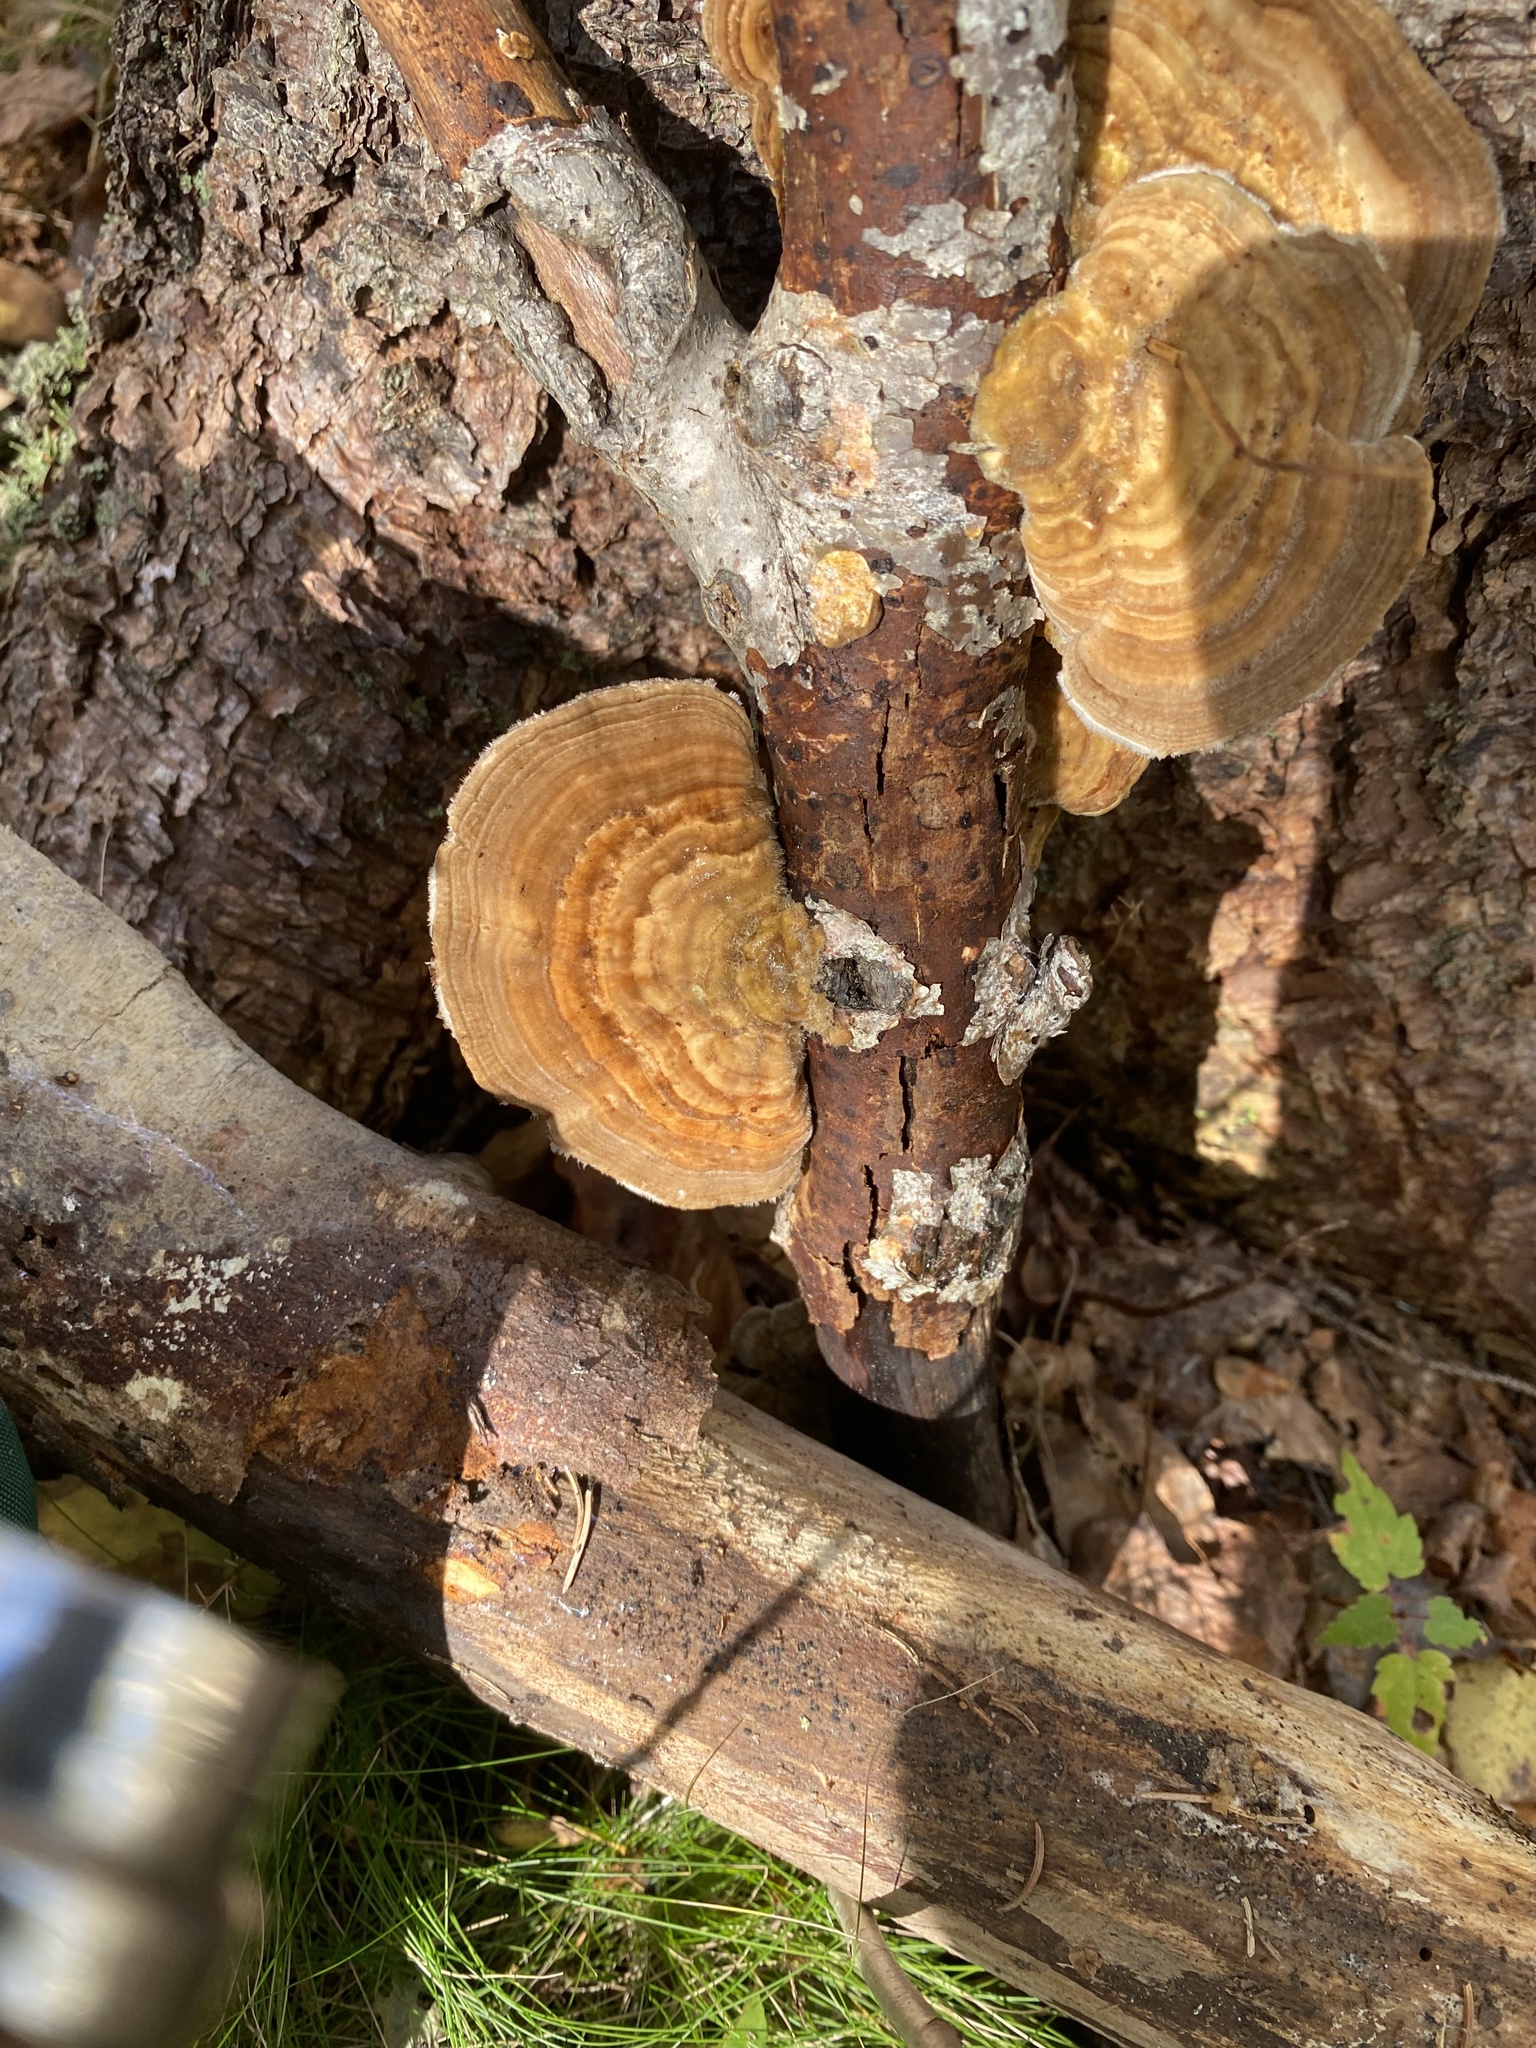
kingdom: Fungi
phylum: Basidiomycota
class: Agaricomycetes
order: Polyporales
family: Polyporaceae
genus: Lenzites
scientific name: Lenzites betulinus
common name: Birch mazegill
